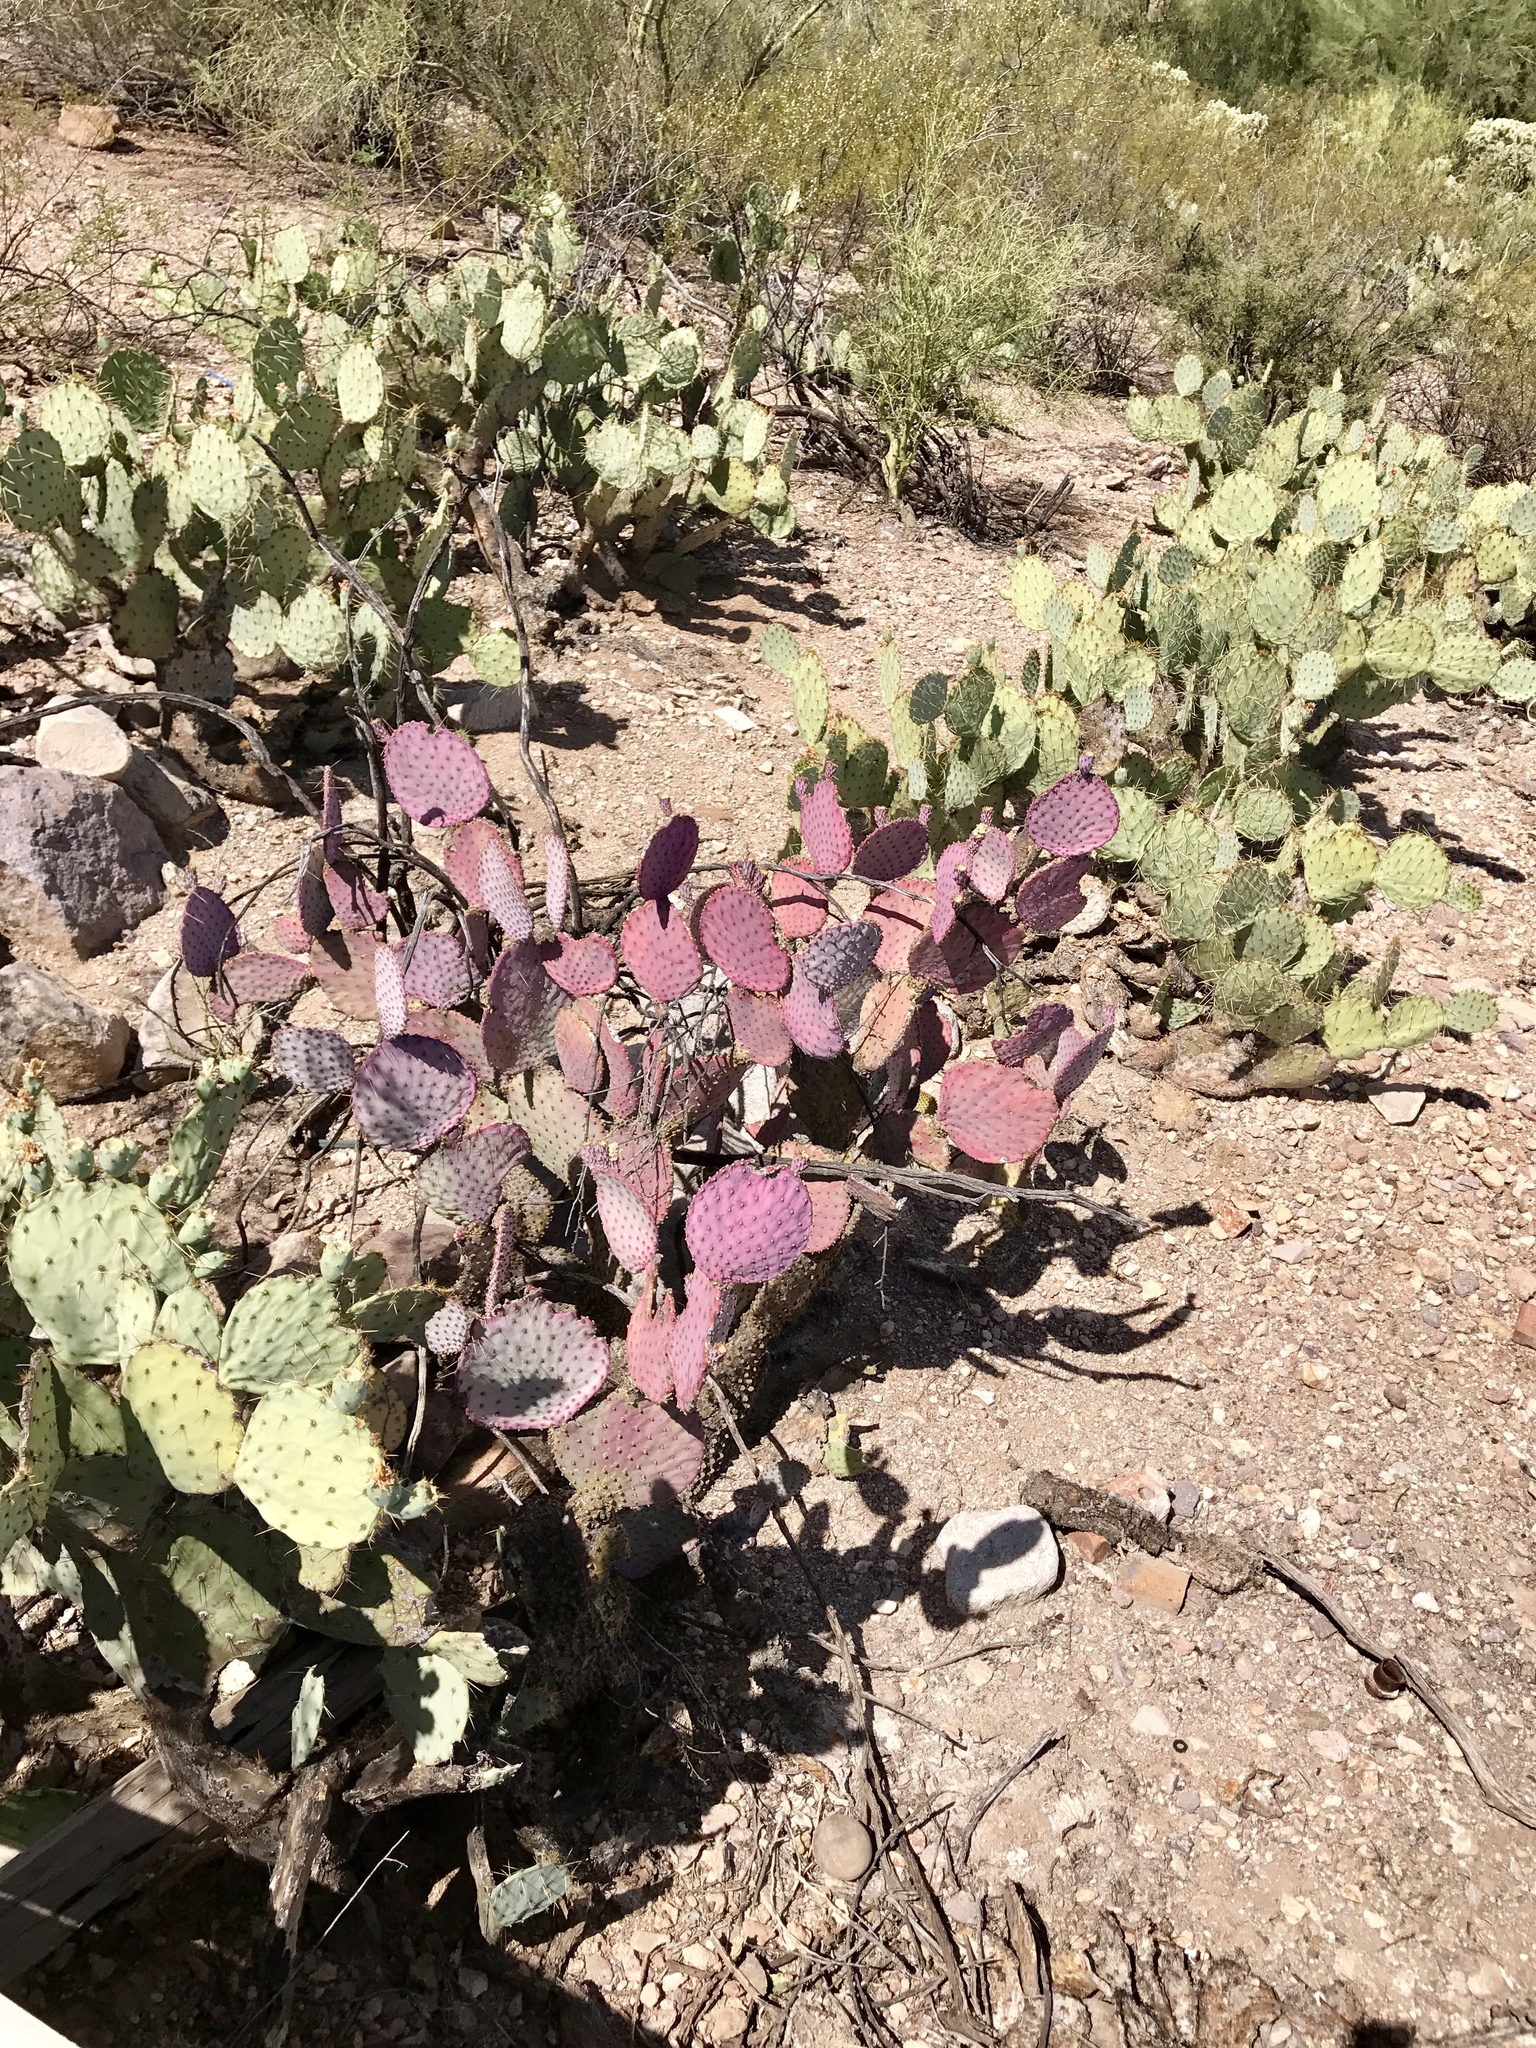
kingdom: Plantae
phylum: Tracheophyta
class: Magnoliopsida
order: Caryophyllales
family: Cactaceae
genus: Opuntia
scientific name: Opuntia gosseliniana
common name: Violet prickly-pear
